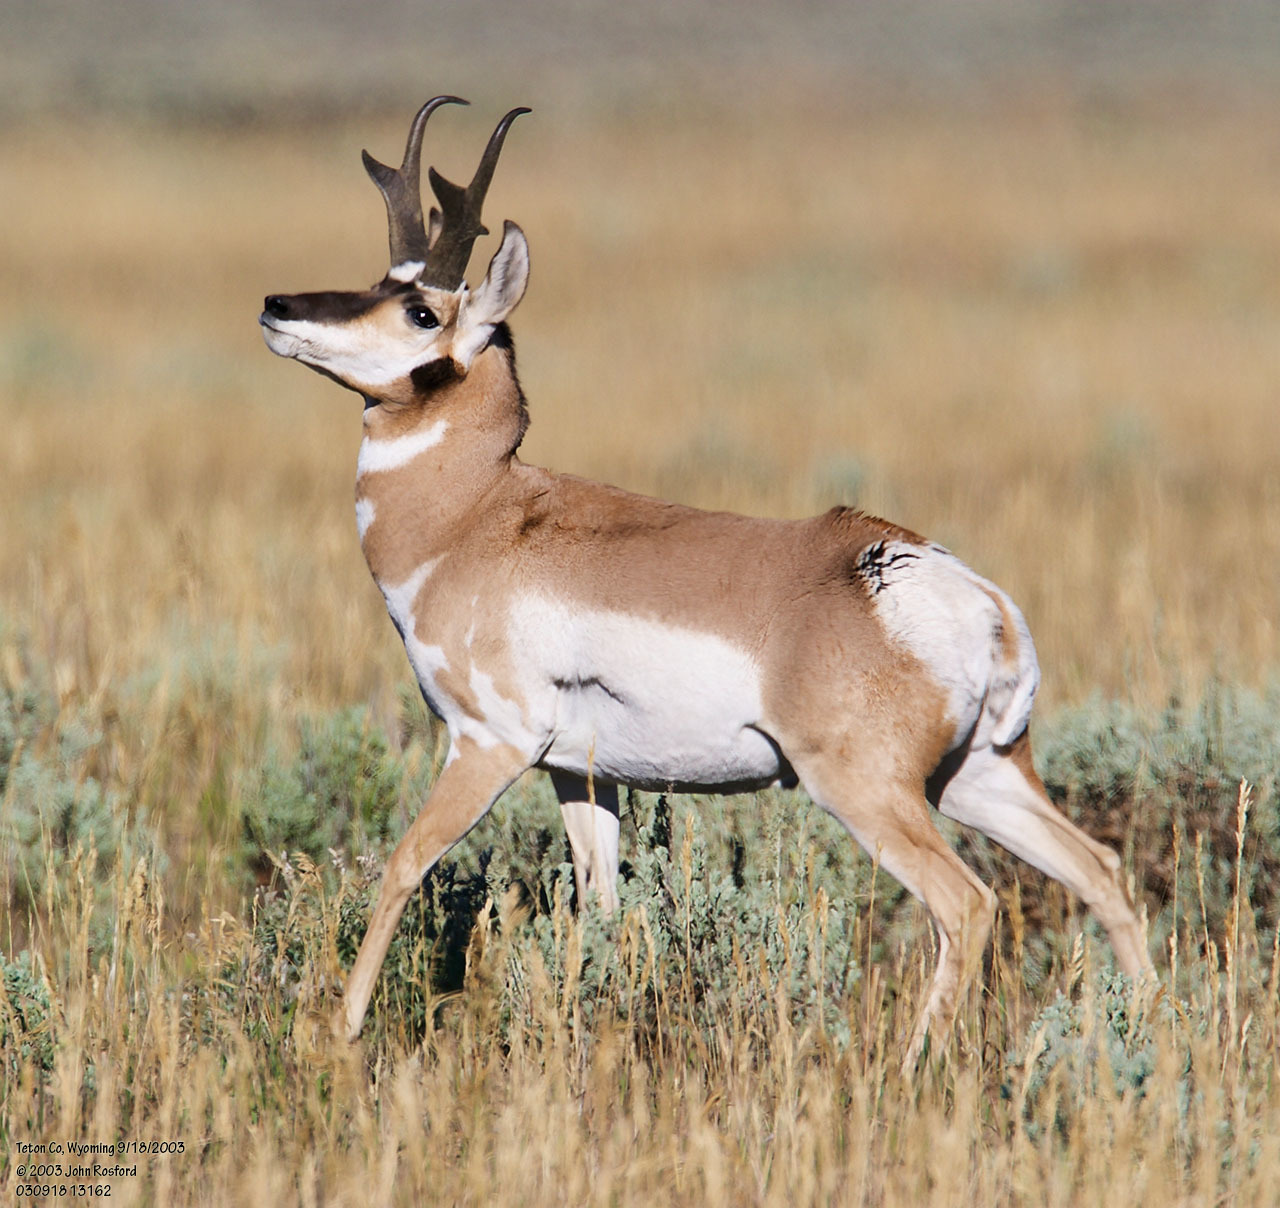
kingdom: Animalia
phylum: Chordata
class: Mammalia
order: Artiodactyla
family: Antilocapridae
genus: Antilocapra
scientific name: Antilocapra americana
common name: Pronghorn
